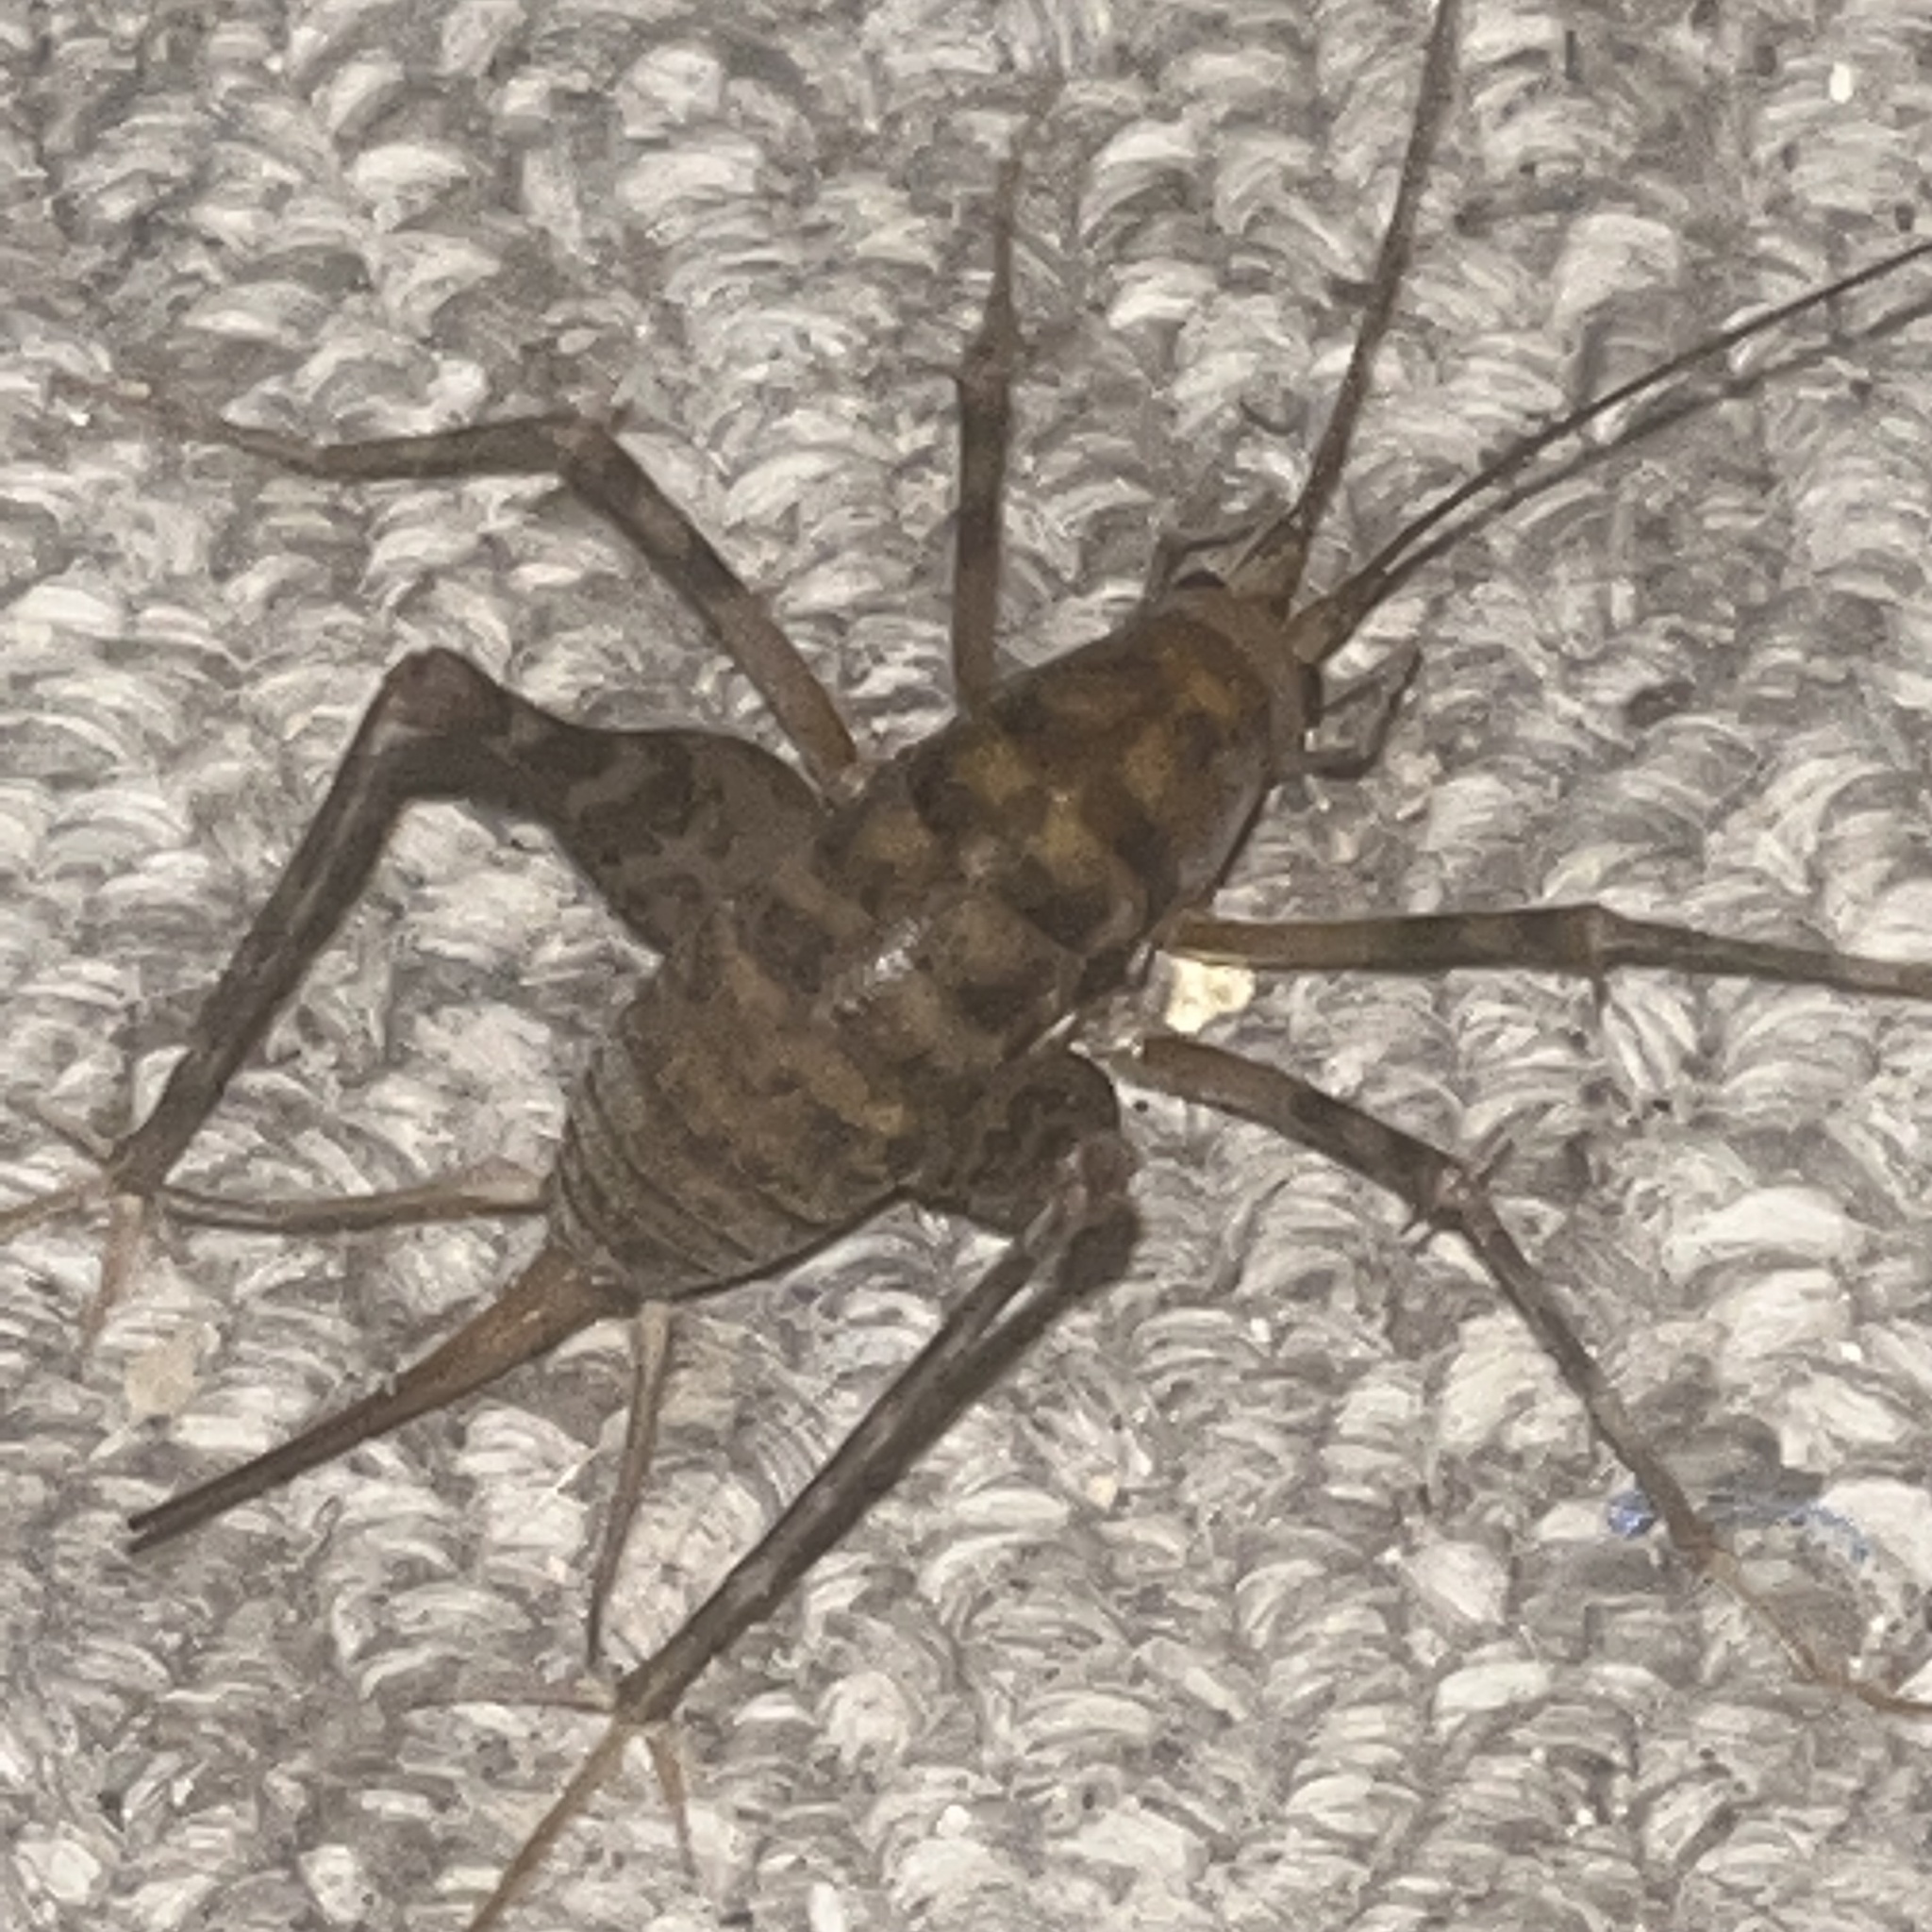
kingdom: Animalia
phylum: Arthropoda
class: Insecta
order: Orthoptera
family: Rhaphidophoridae
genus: Tachycines
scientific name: Tachycines asynamorus
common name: Greenhouse camel cricket
